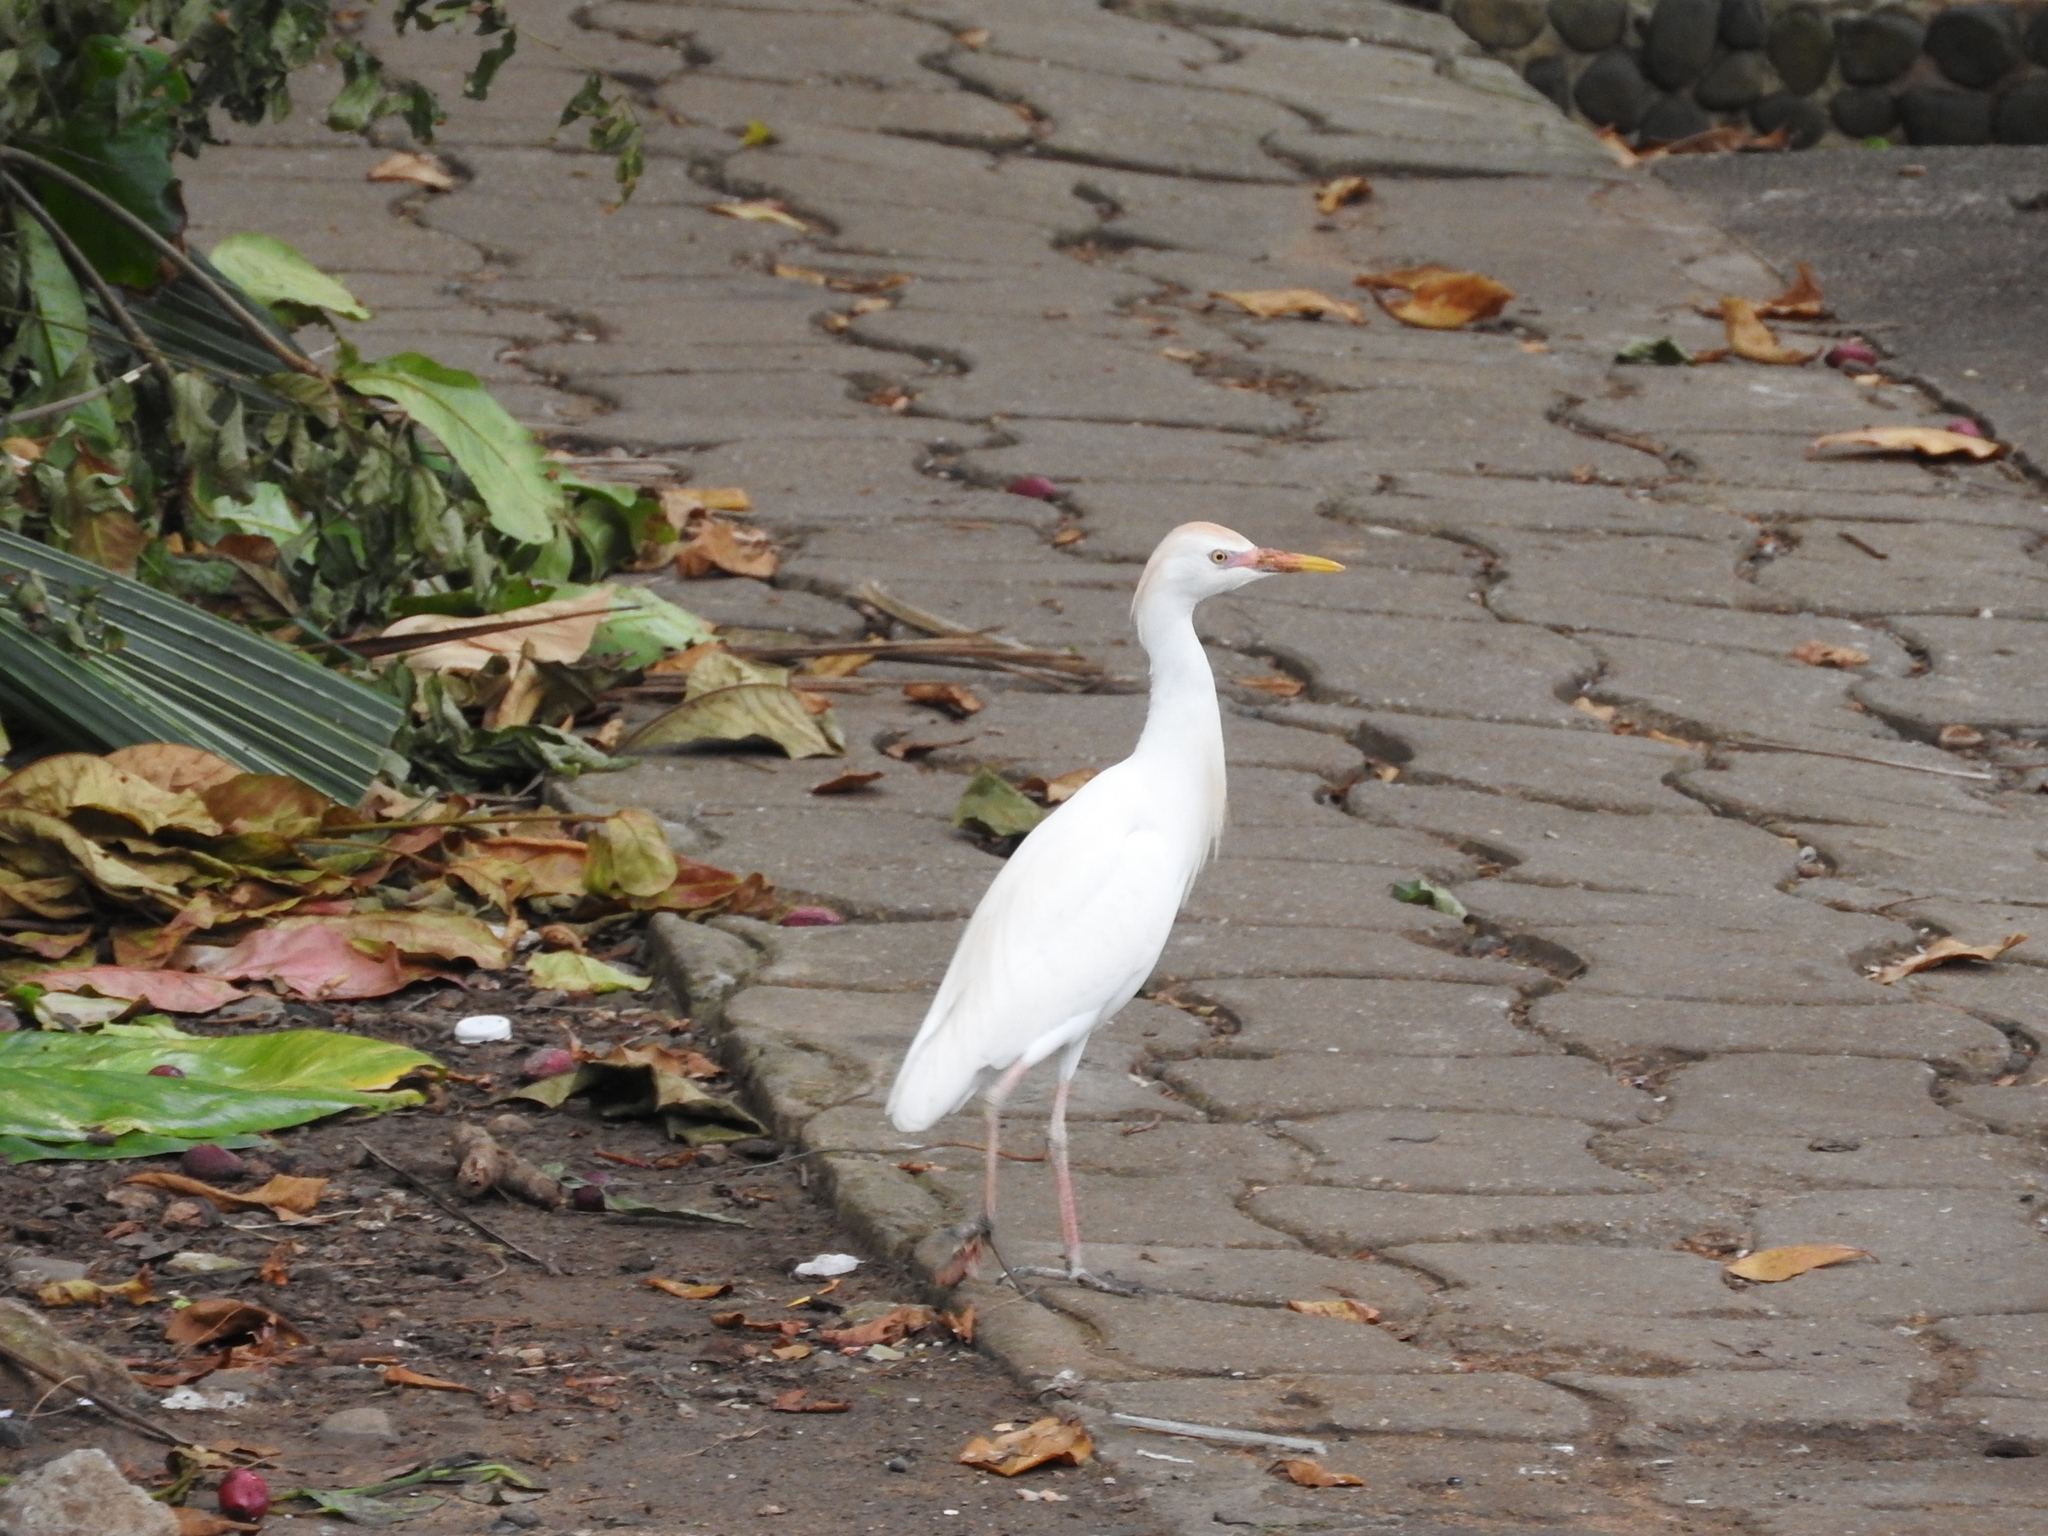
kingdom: Animalia
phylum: Chordata
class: Aves
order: Pelecaniformes
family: Ardeidae
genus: Bubulcus
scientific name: Bubulcus ibis
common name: Cattle egret
